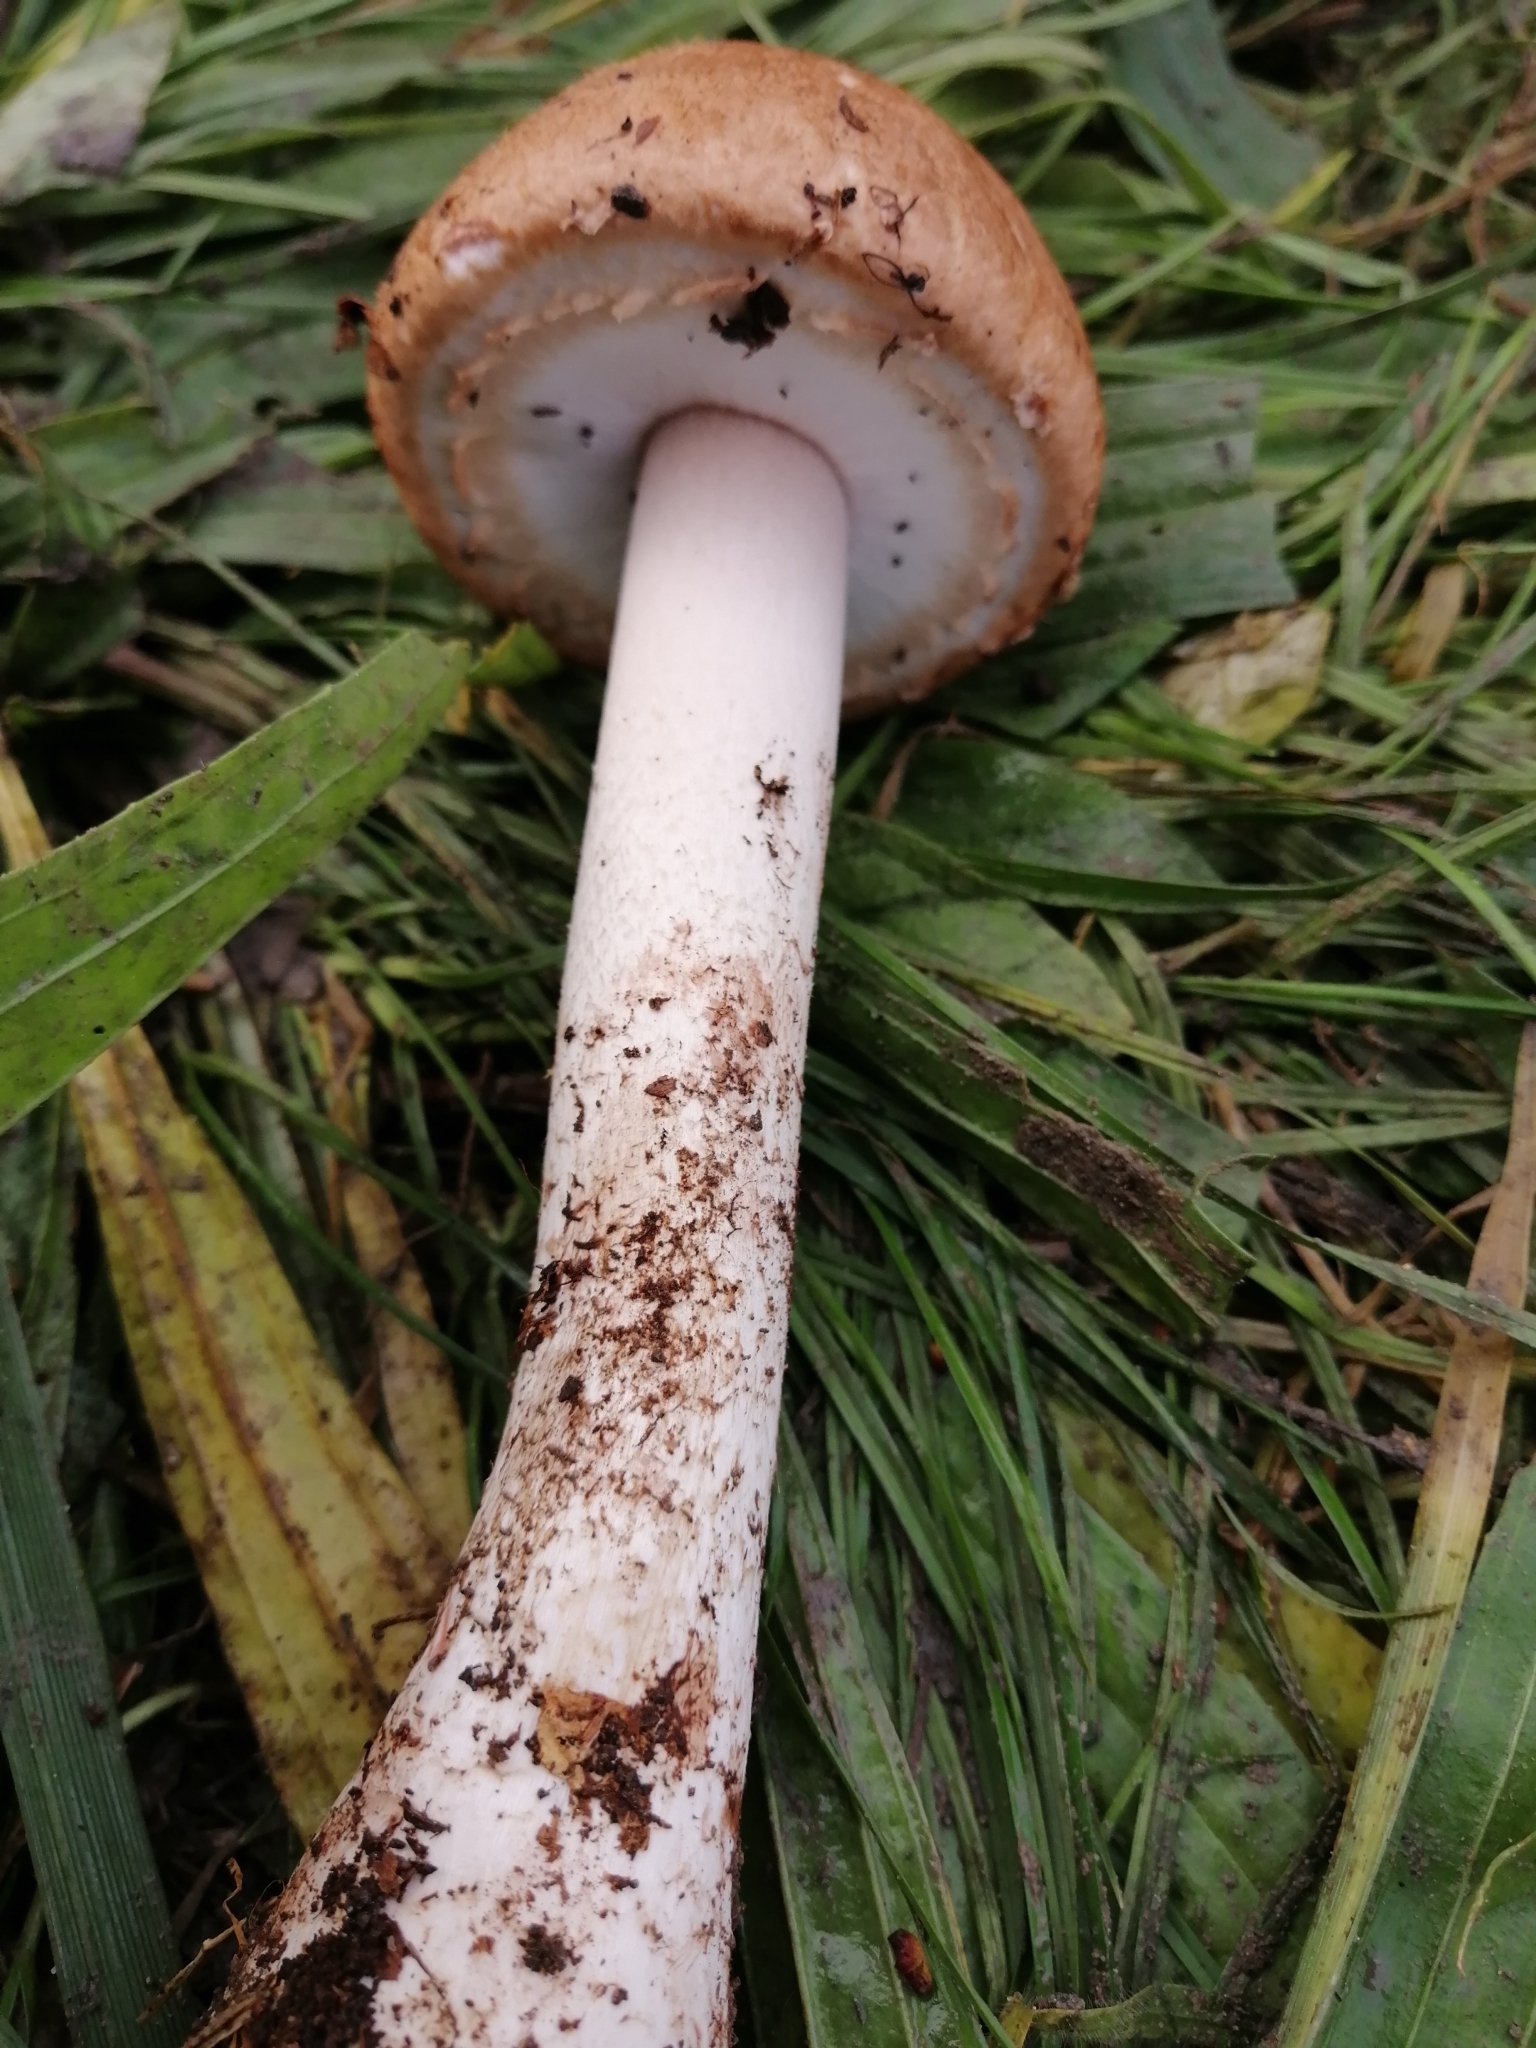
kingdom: Fungi
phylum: Basidiomycota
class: Agaricomycetes
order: Agaricales
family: Agaricaceae
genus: Agaricus
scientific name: Agaricus sylvaticus
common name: Blushing wood mushroom
